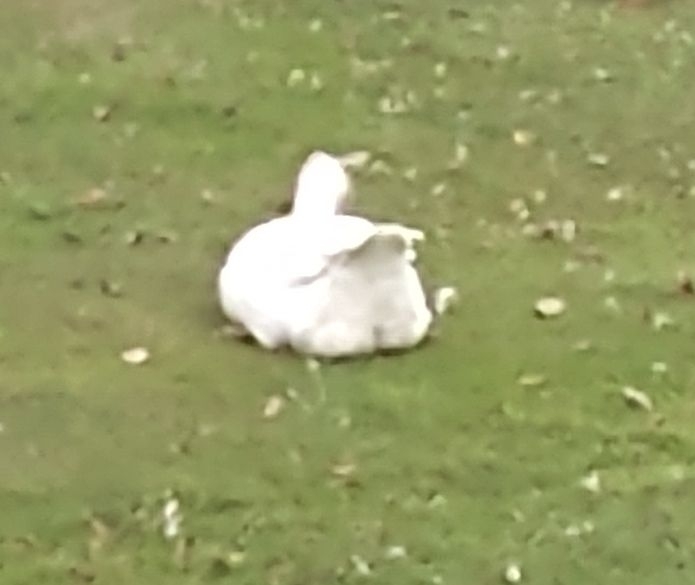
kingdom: Animalia
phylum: Chordata
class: Aves
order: Anseriformes
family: Anatidae
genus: Anser
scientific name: Anser anser
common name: Greylag goose
